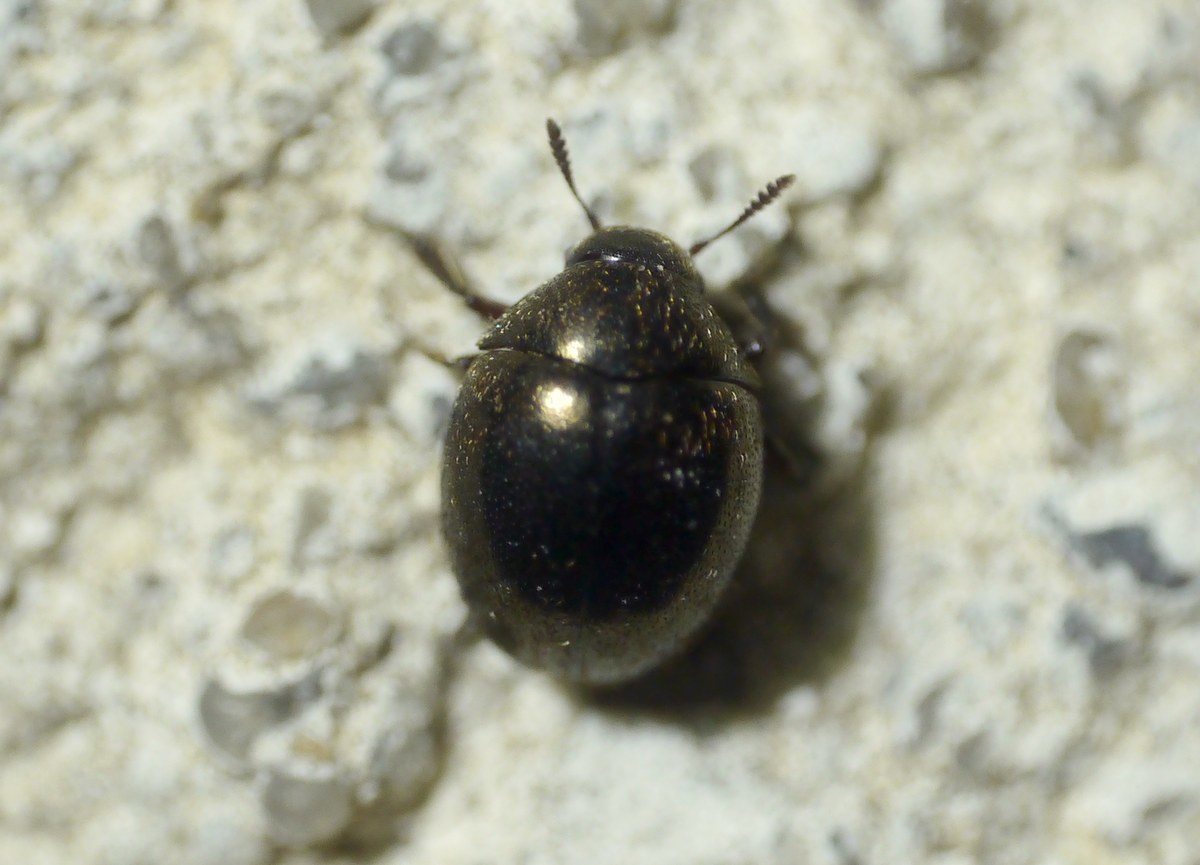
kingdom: Animalia
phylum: Arthropoda
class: Insecta
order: Coleoptera
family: Byrrhidae
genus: Lamprobyrrhulus
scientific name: Lamprobyrrhulus nitidus
